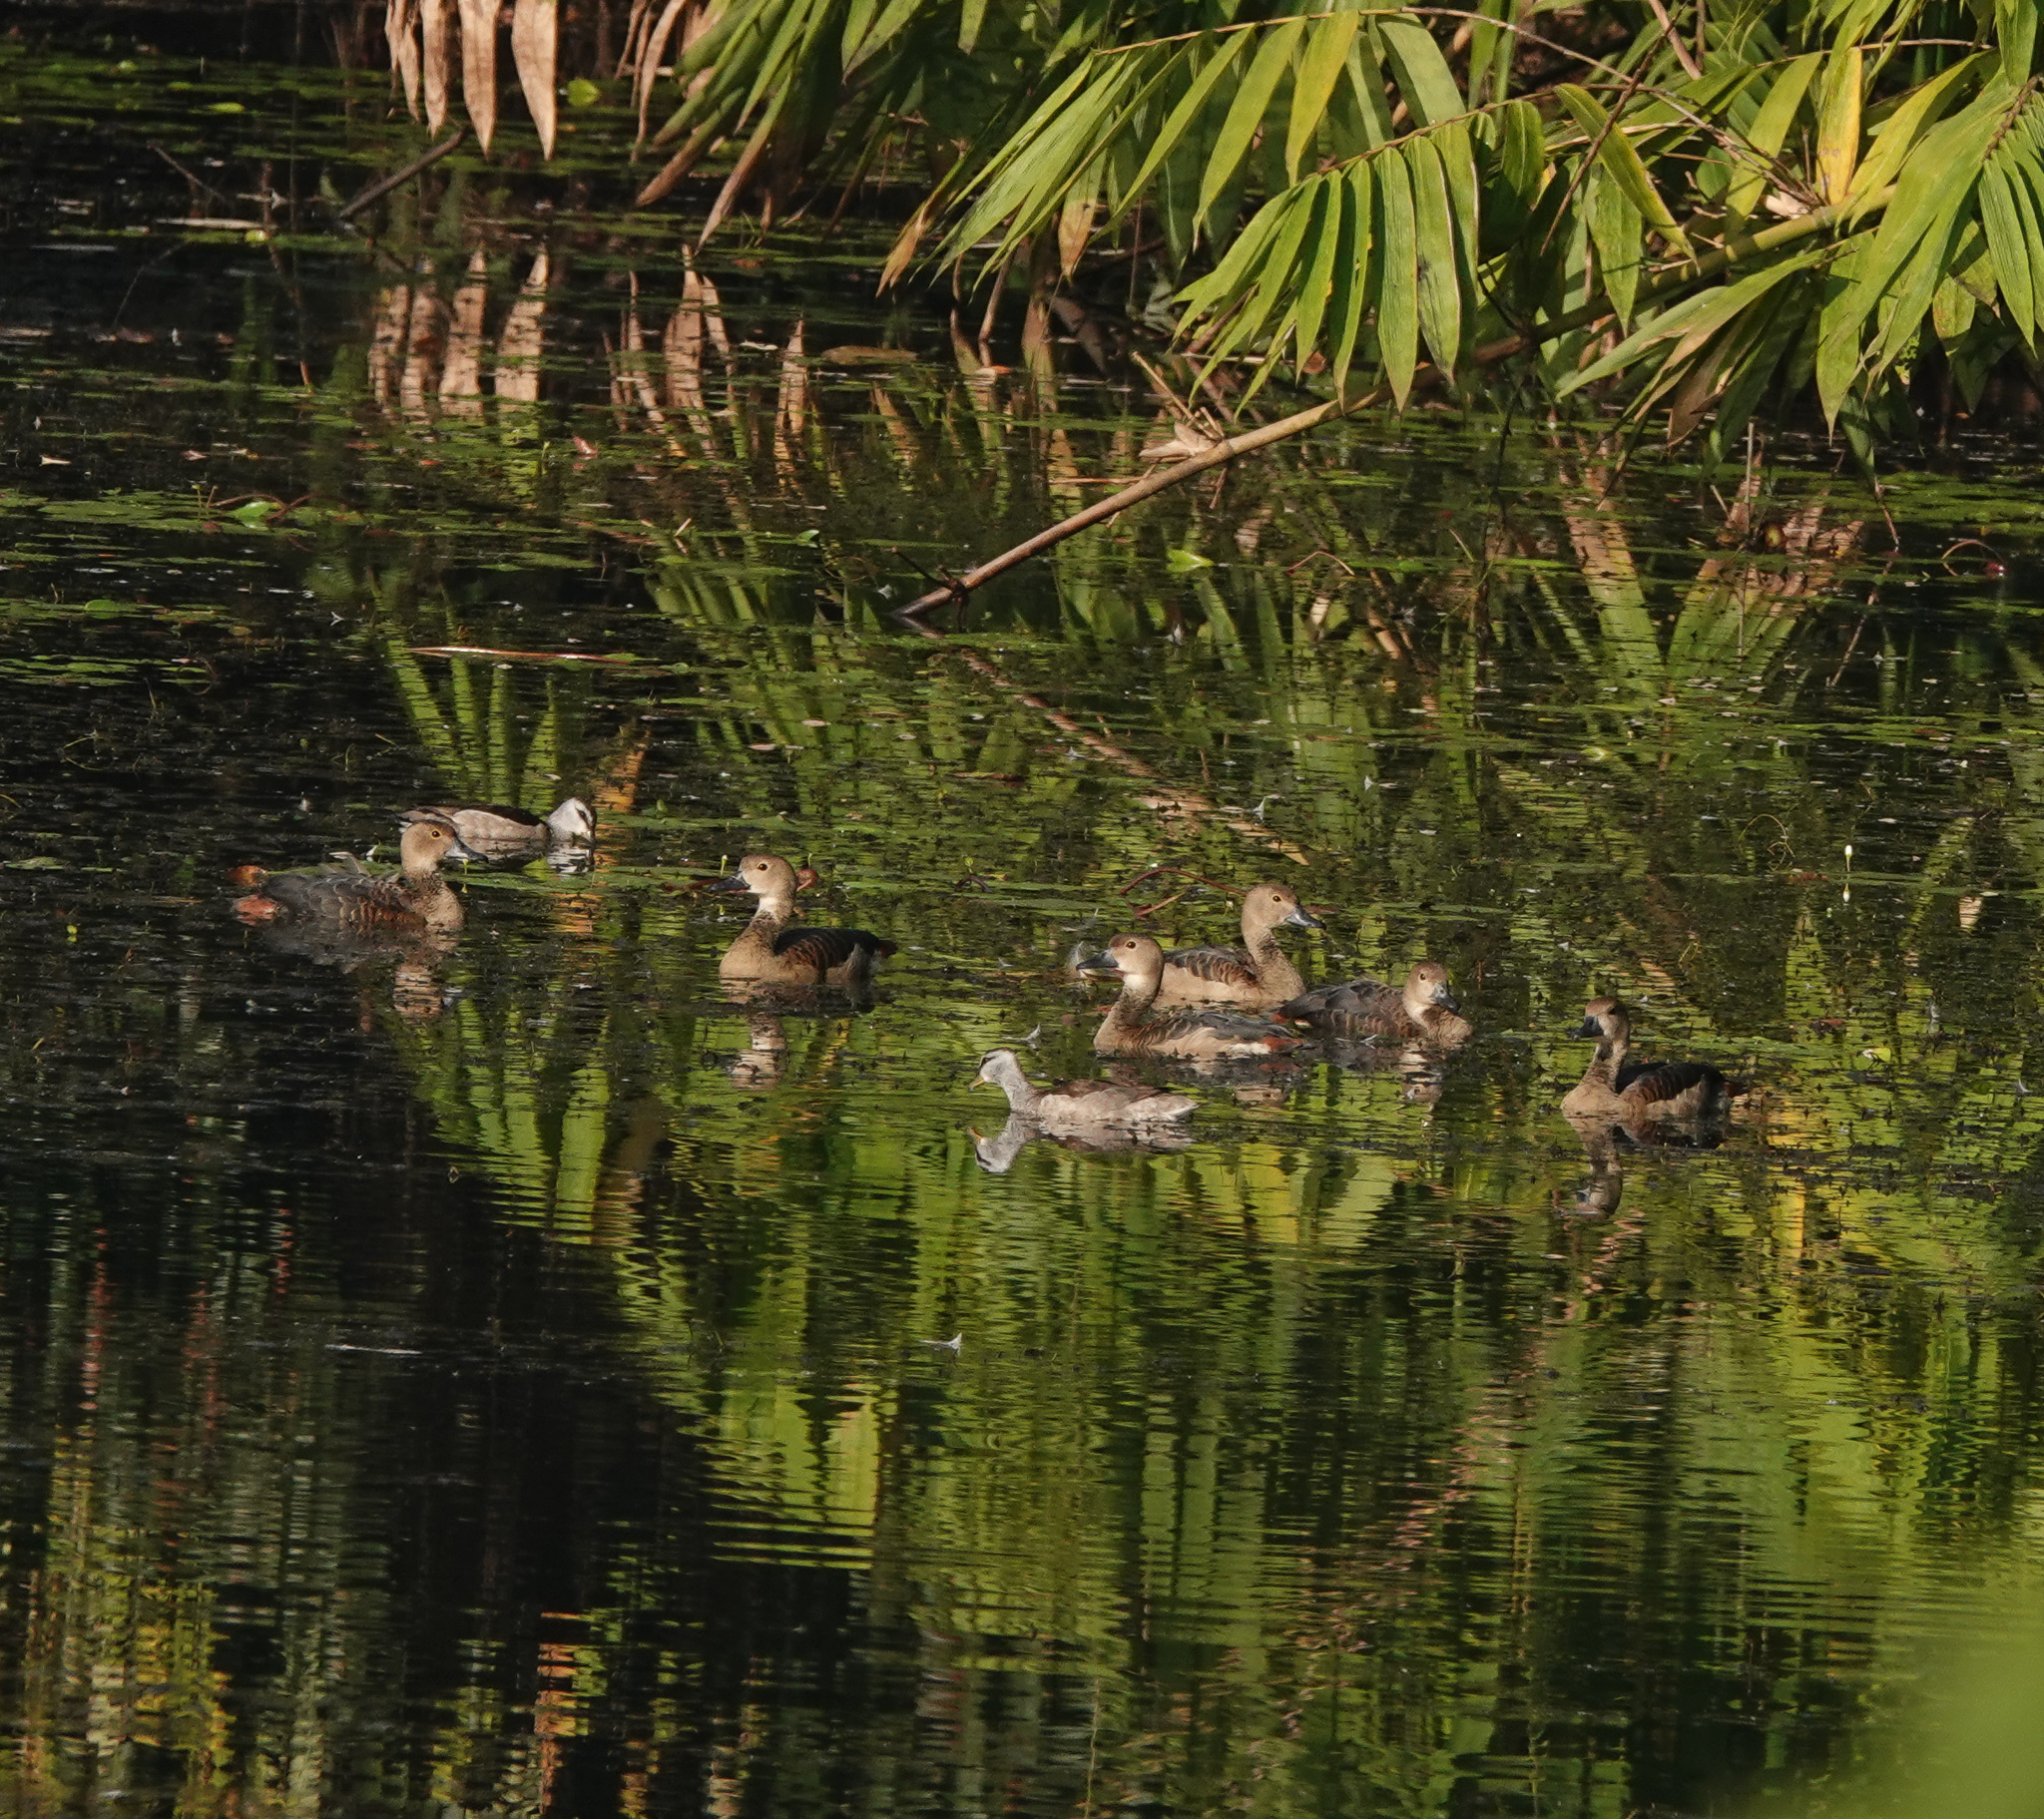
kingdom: Animalia
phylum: Chordata
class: Aves
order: Anseriformes
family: Anatidae
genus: Dendrocygna
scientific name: Dendrocygna javanica
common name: Lesser whistling-duck
